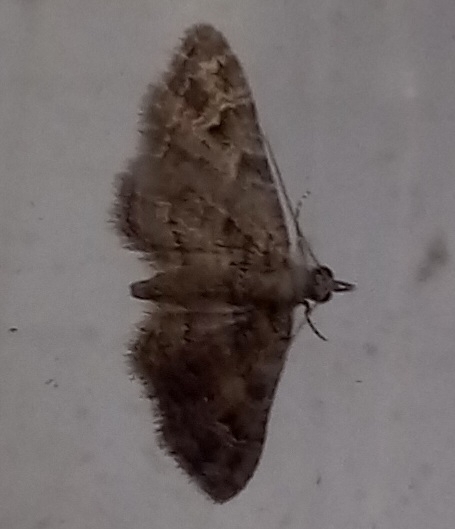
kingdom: Animalia
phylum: Arthropoda
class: Insecta
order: Lepidoptera
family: Geometridae
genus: Gymnoscelis
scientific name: Gymnoscelis rufifasciata
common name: Double-striped pug
